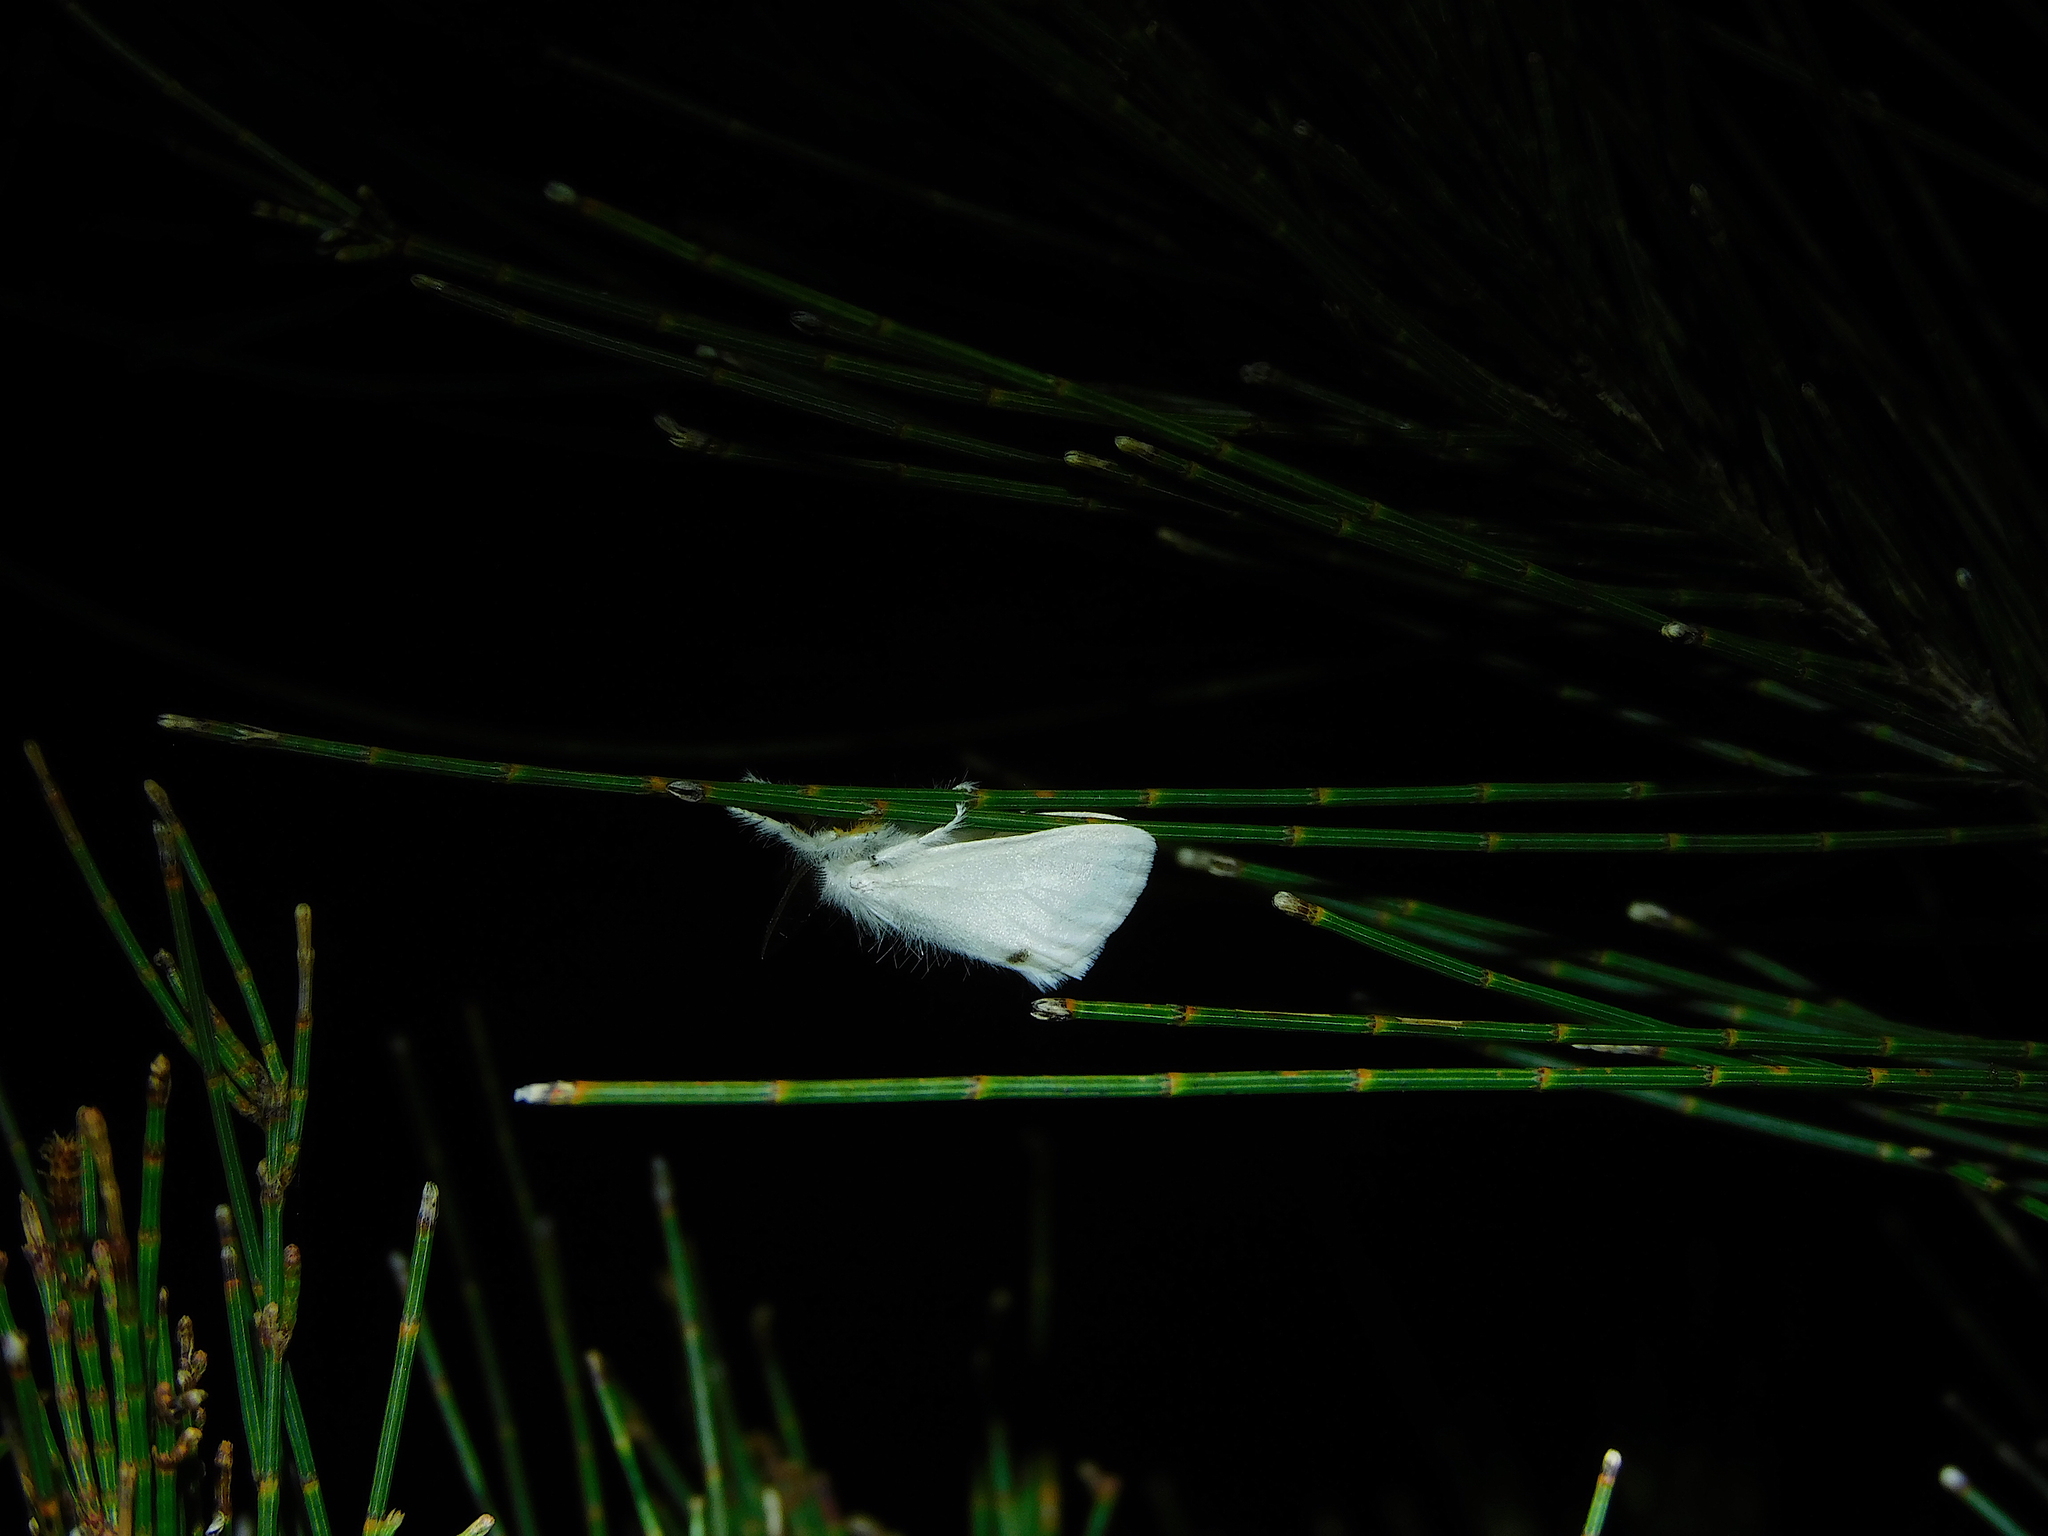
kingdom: Animalia
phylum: Arthropoda
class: Insecta
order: Lepidoptera
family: Erebidae
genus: Acyphas
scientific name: Acyphas semiochrea
